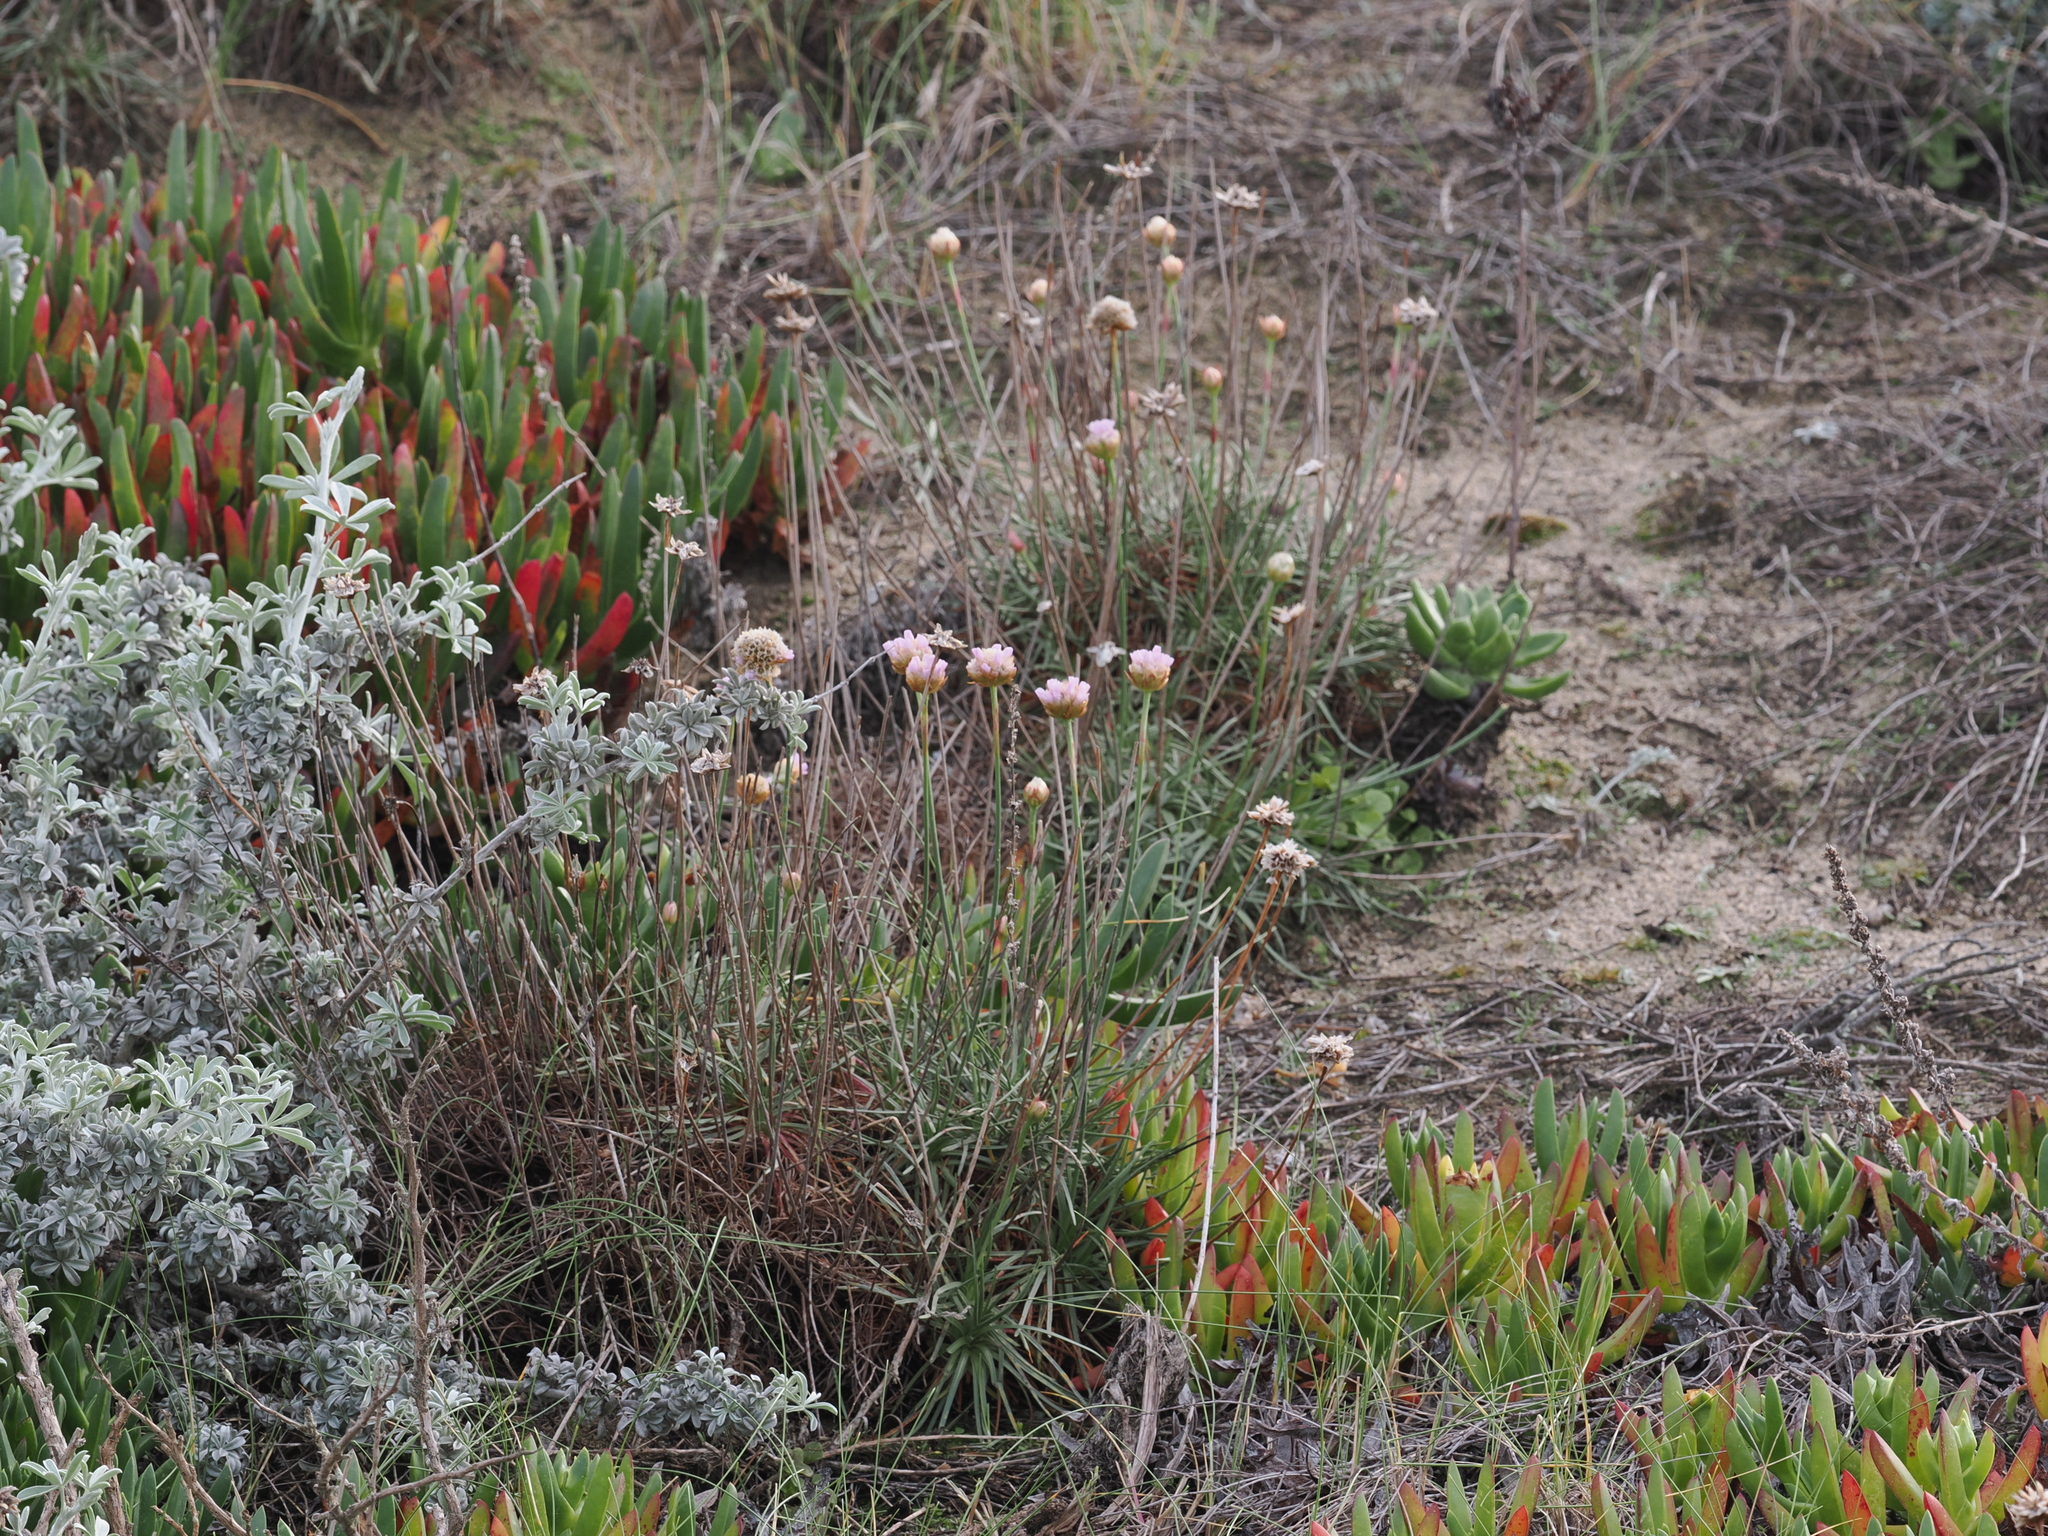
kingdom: Plantae
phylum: Tracheophyta
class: Magnoliopsida
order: Caryophyllales
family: Plumbaginaceae
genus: Armeria
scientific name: Armeria maritima
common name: Thrift
